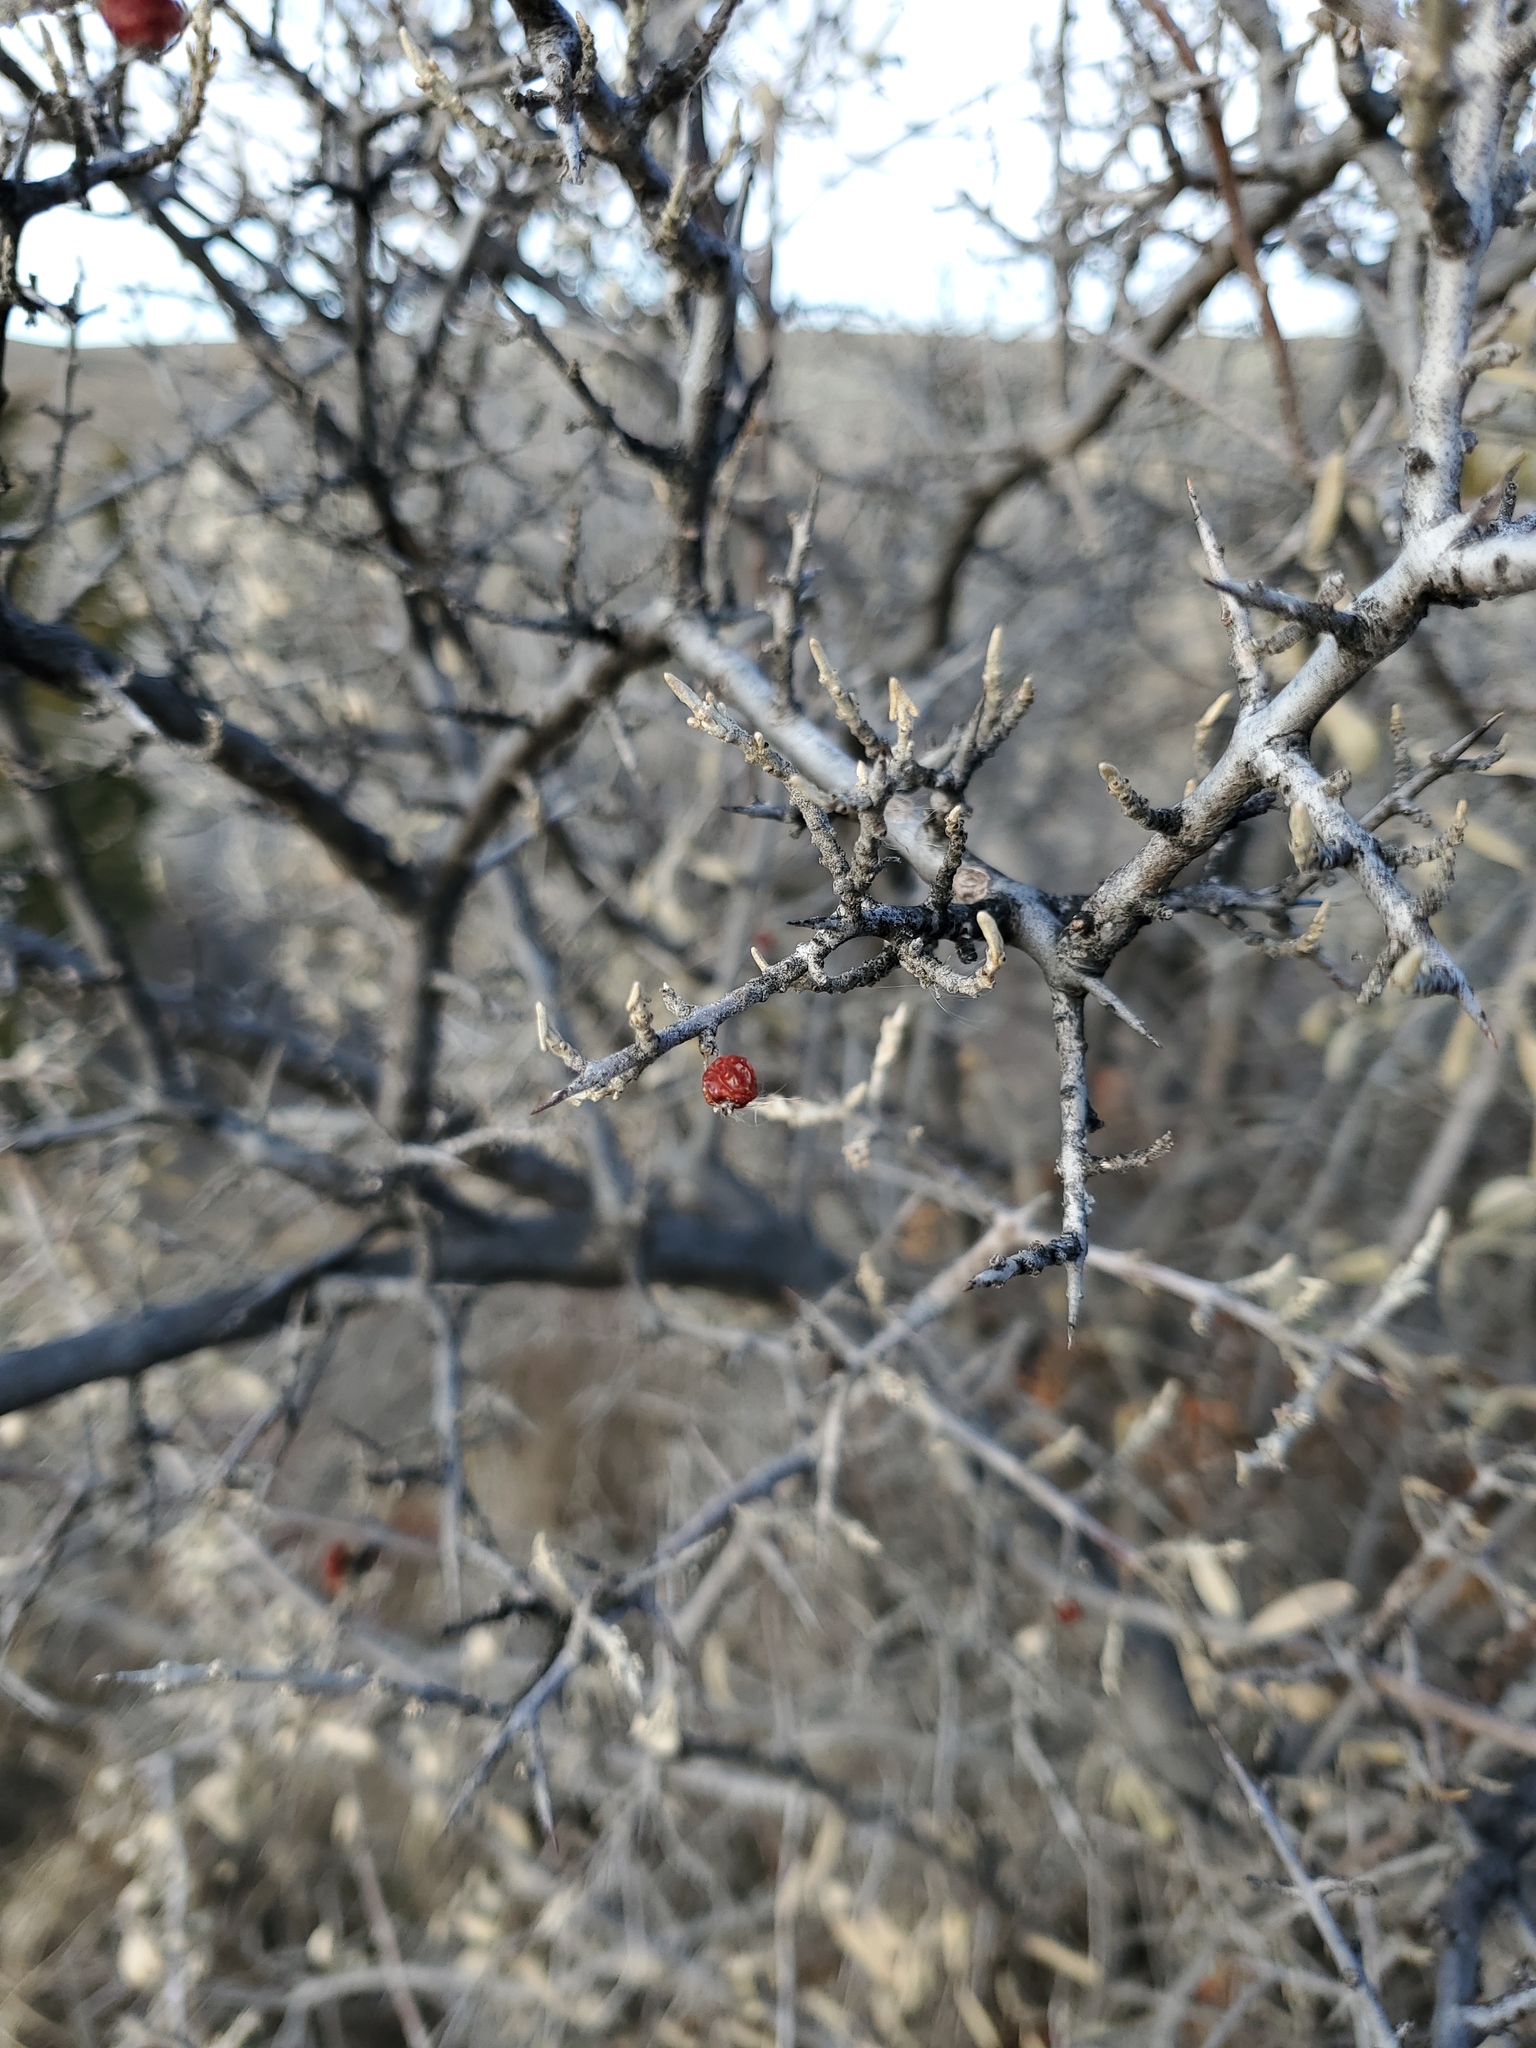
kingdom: Plantae
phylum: Tracheophyta
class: Magnoliopsida
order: Rosales
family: Elaeagnaceae
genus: Shepherdia
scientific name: Shepherdia argentea
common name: Silver buffaloberry
